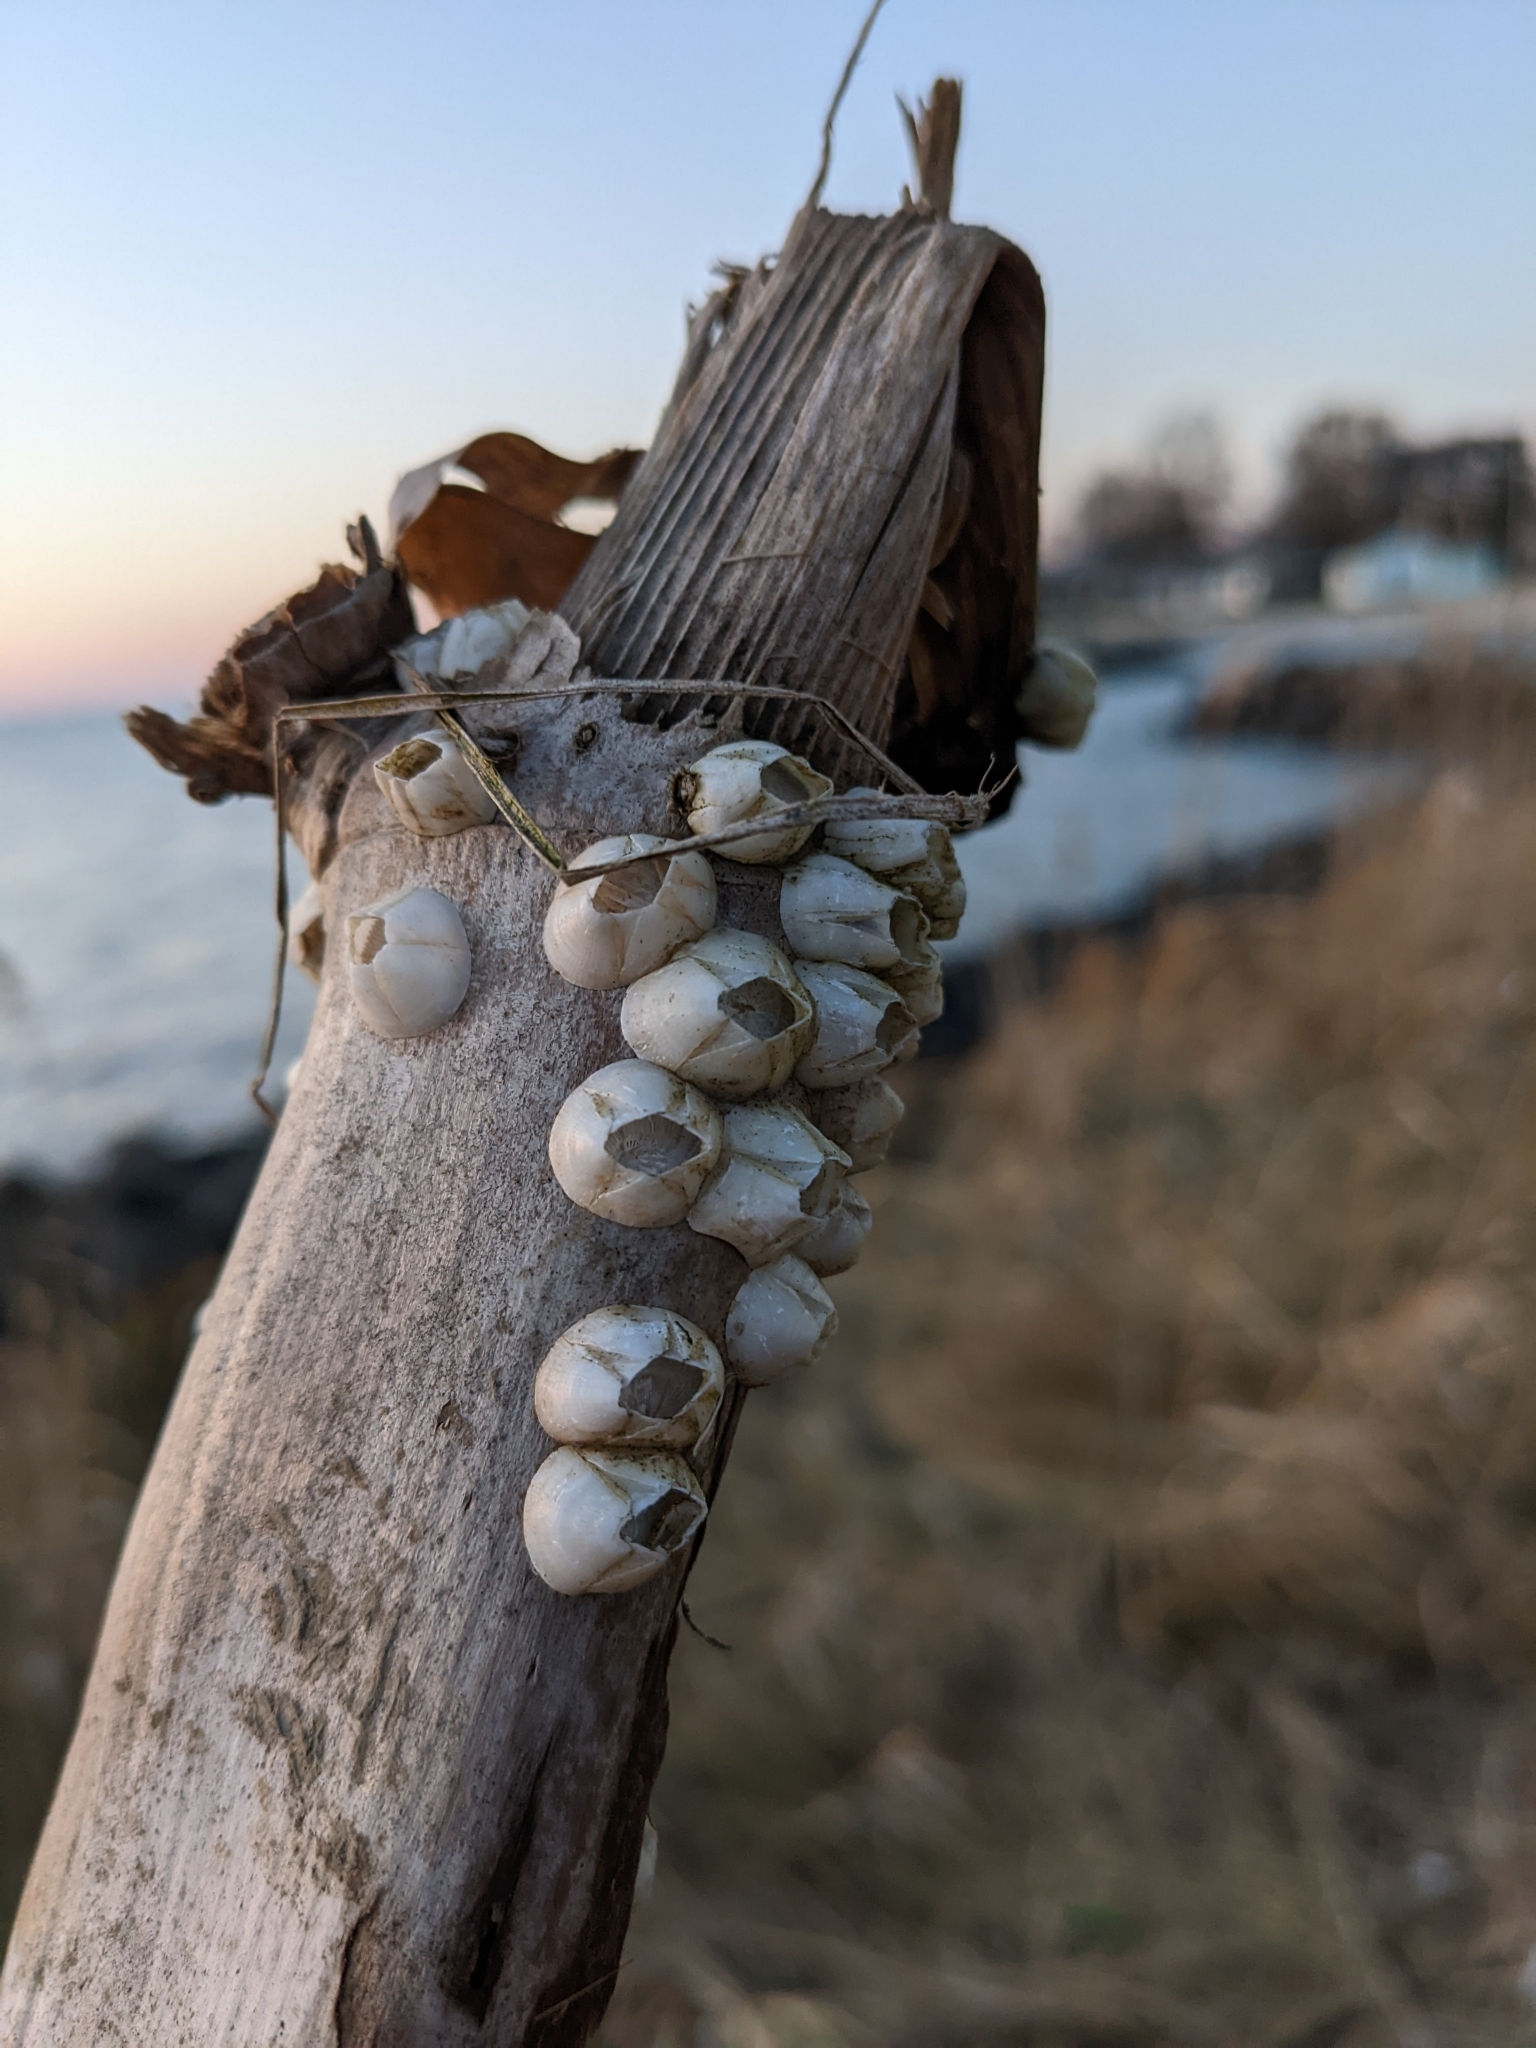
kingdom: Animalia
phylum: Arthropoda
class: Maxillopoda
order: Sessilia
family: Balanidae
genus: Amphibalanus
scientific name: Amphibalanus improvisus
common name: Bay barnacle
